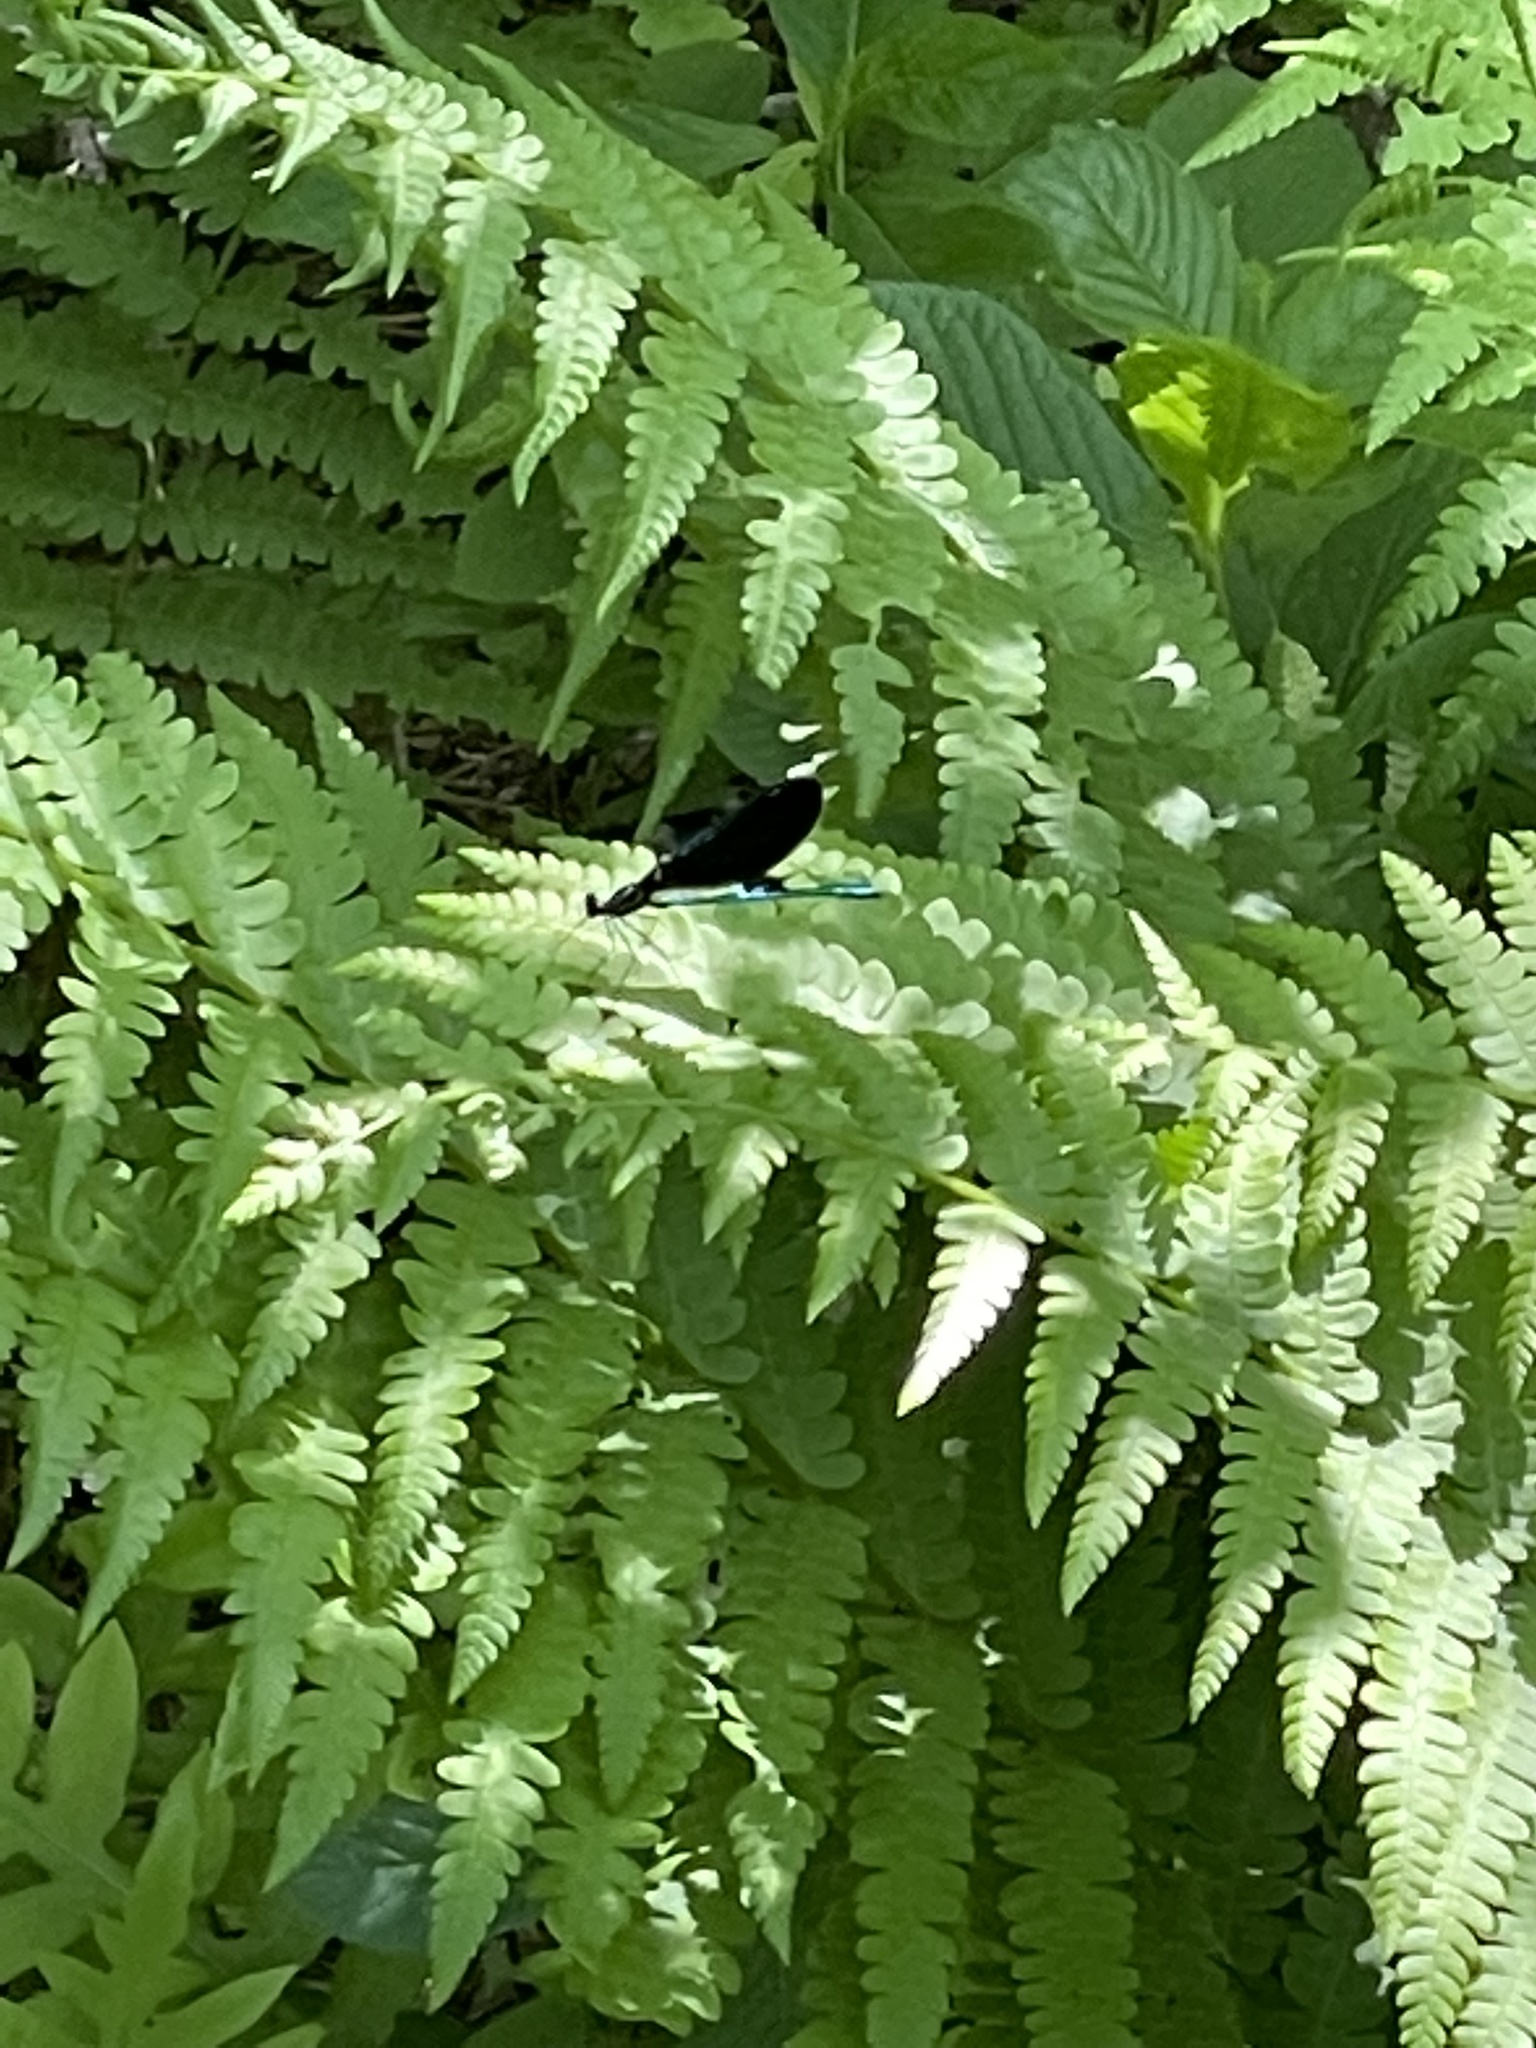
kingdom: Animalia
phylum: Arthropoda
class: Insecta
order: Odonata
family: Calopterygidae
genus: Calopteryx
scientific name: Calopteryx maculata
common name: Ebony jewelwing
